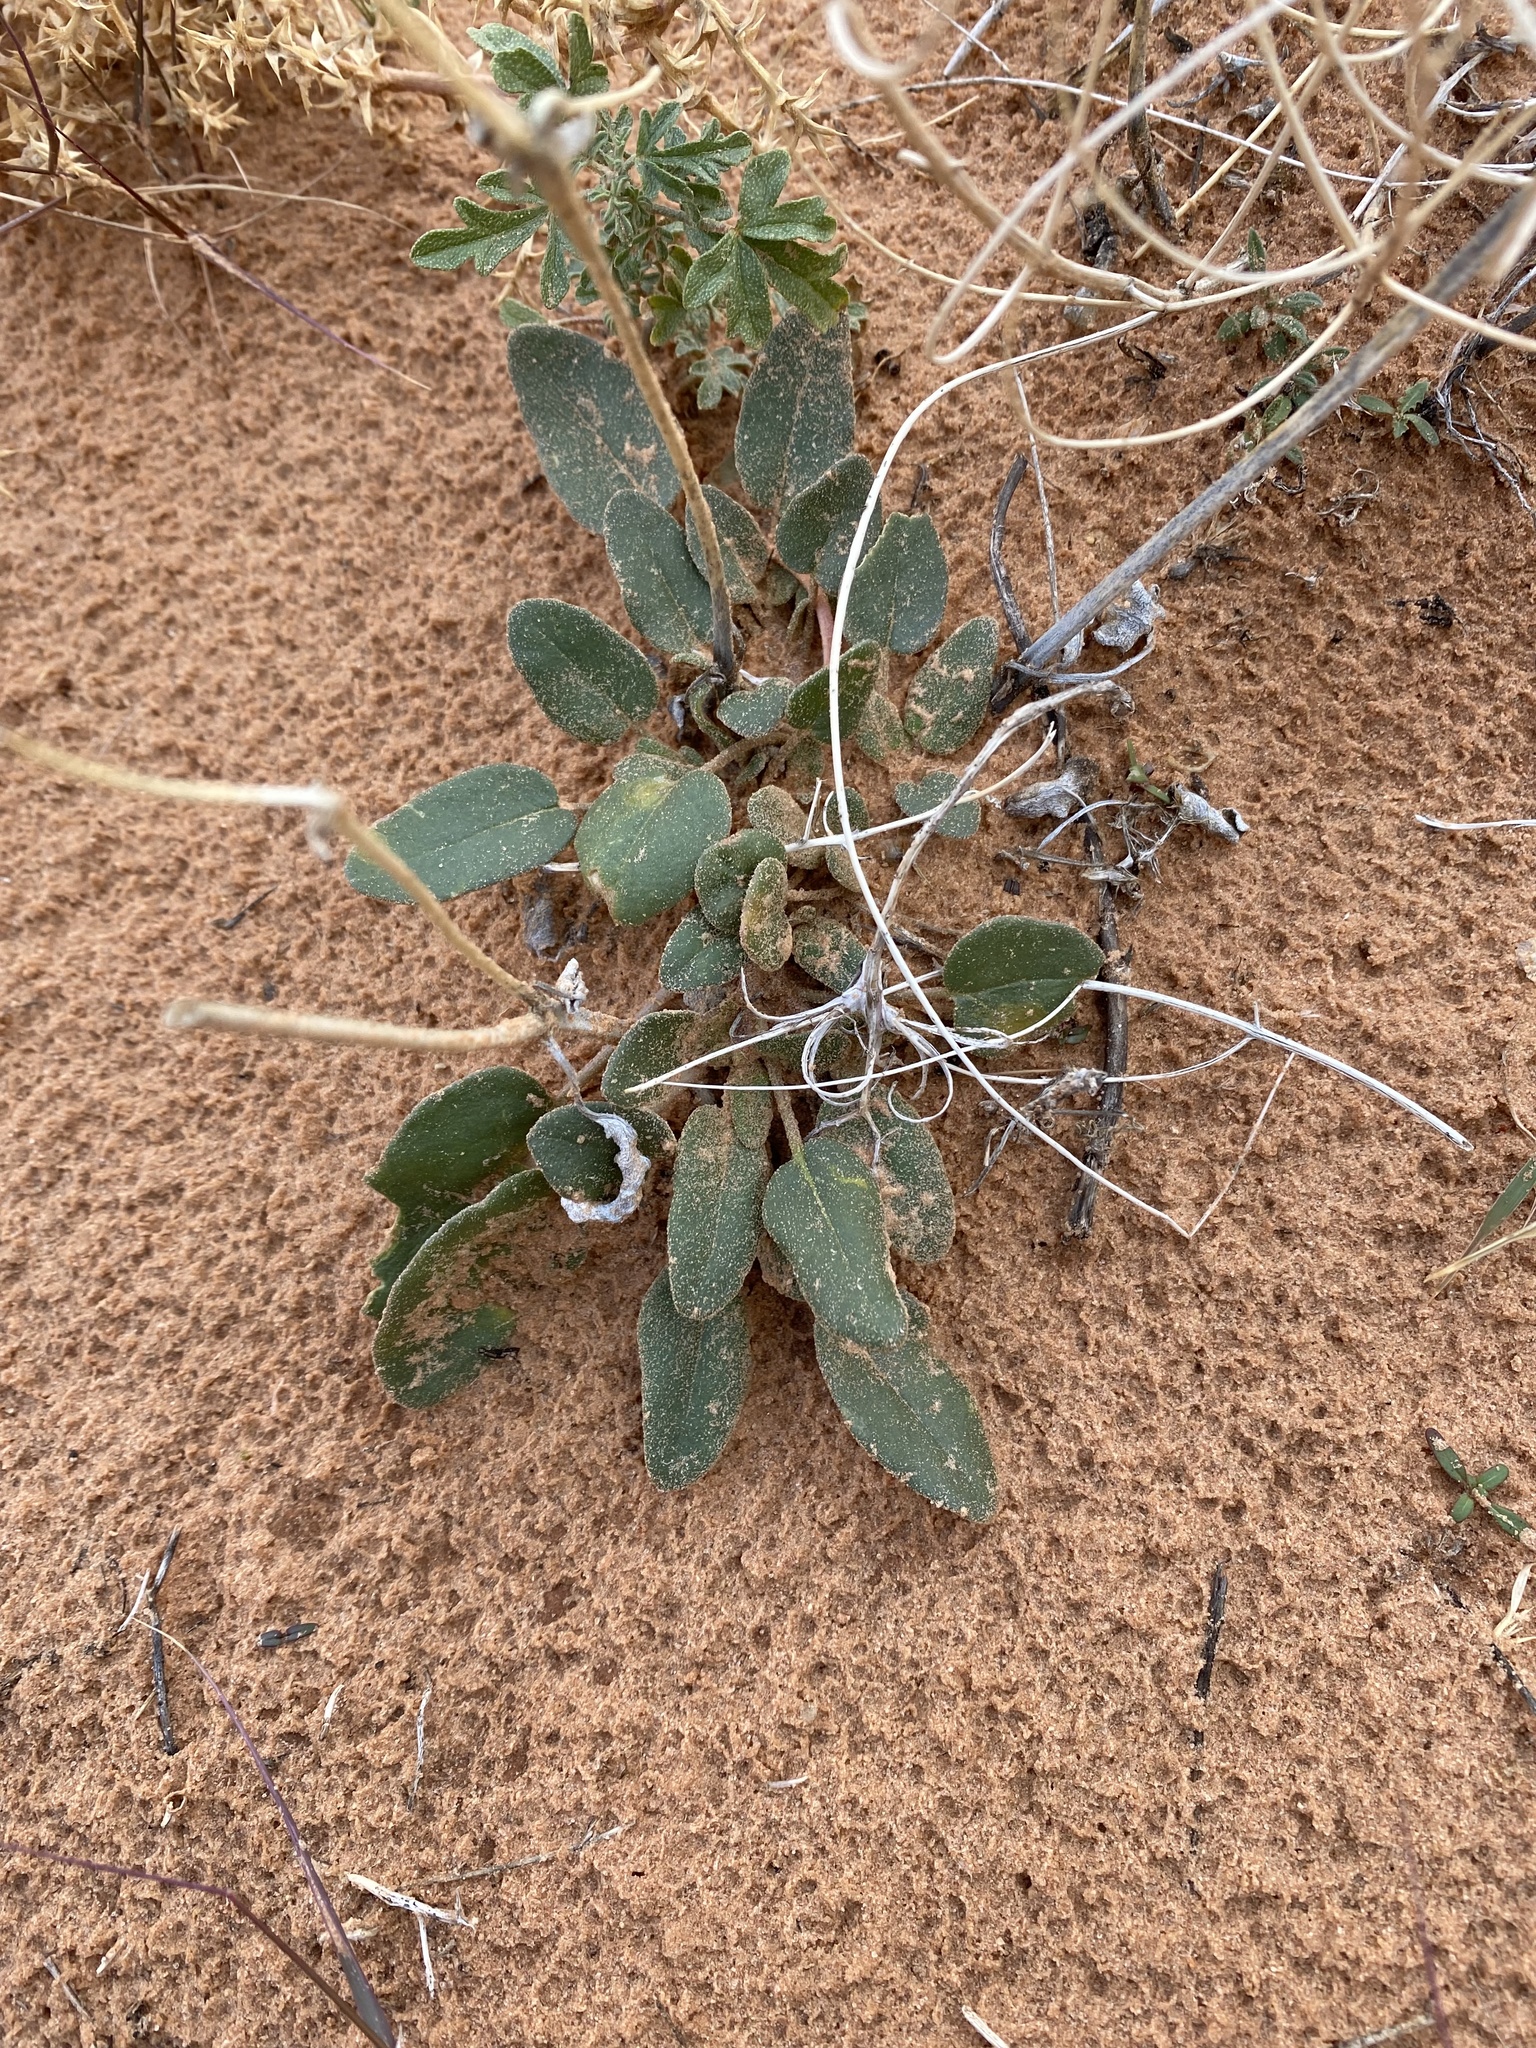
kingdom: Plantae
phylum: Tracheophyta
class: Magnoliopsida
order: Caryophyllales
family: Nyctaginaceae
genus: Abronia
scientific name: Abronia elliptica
